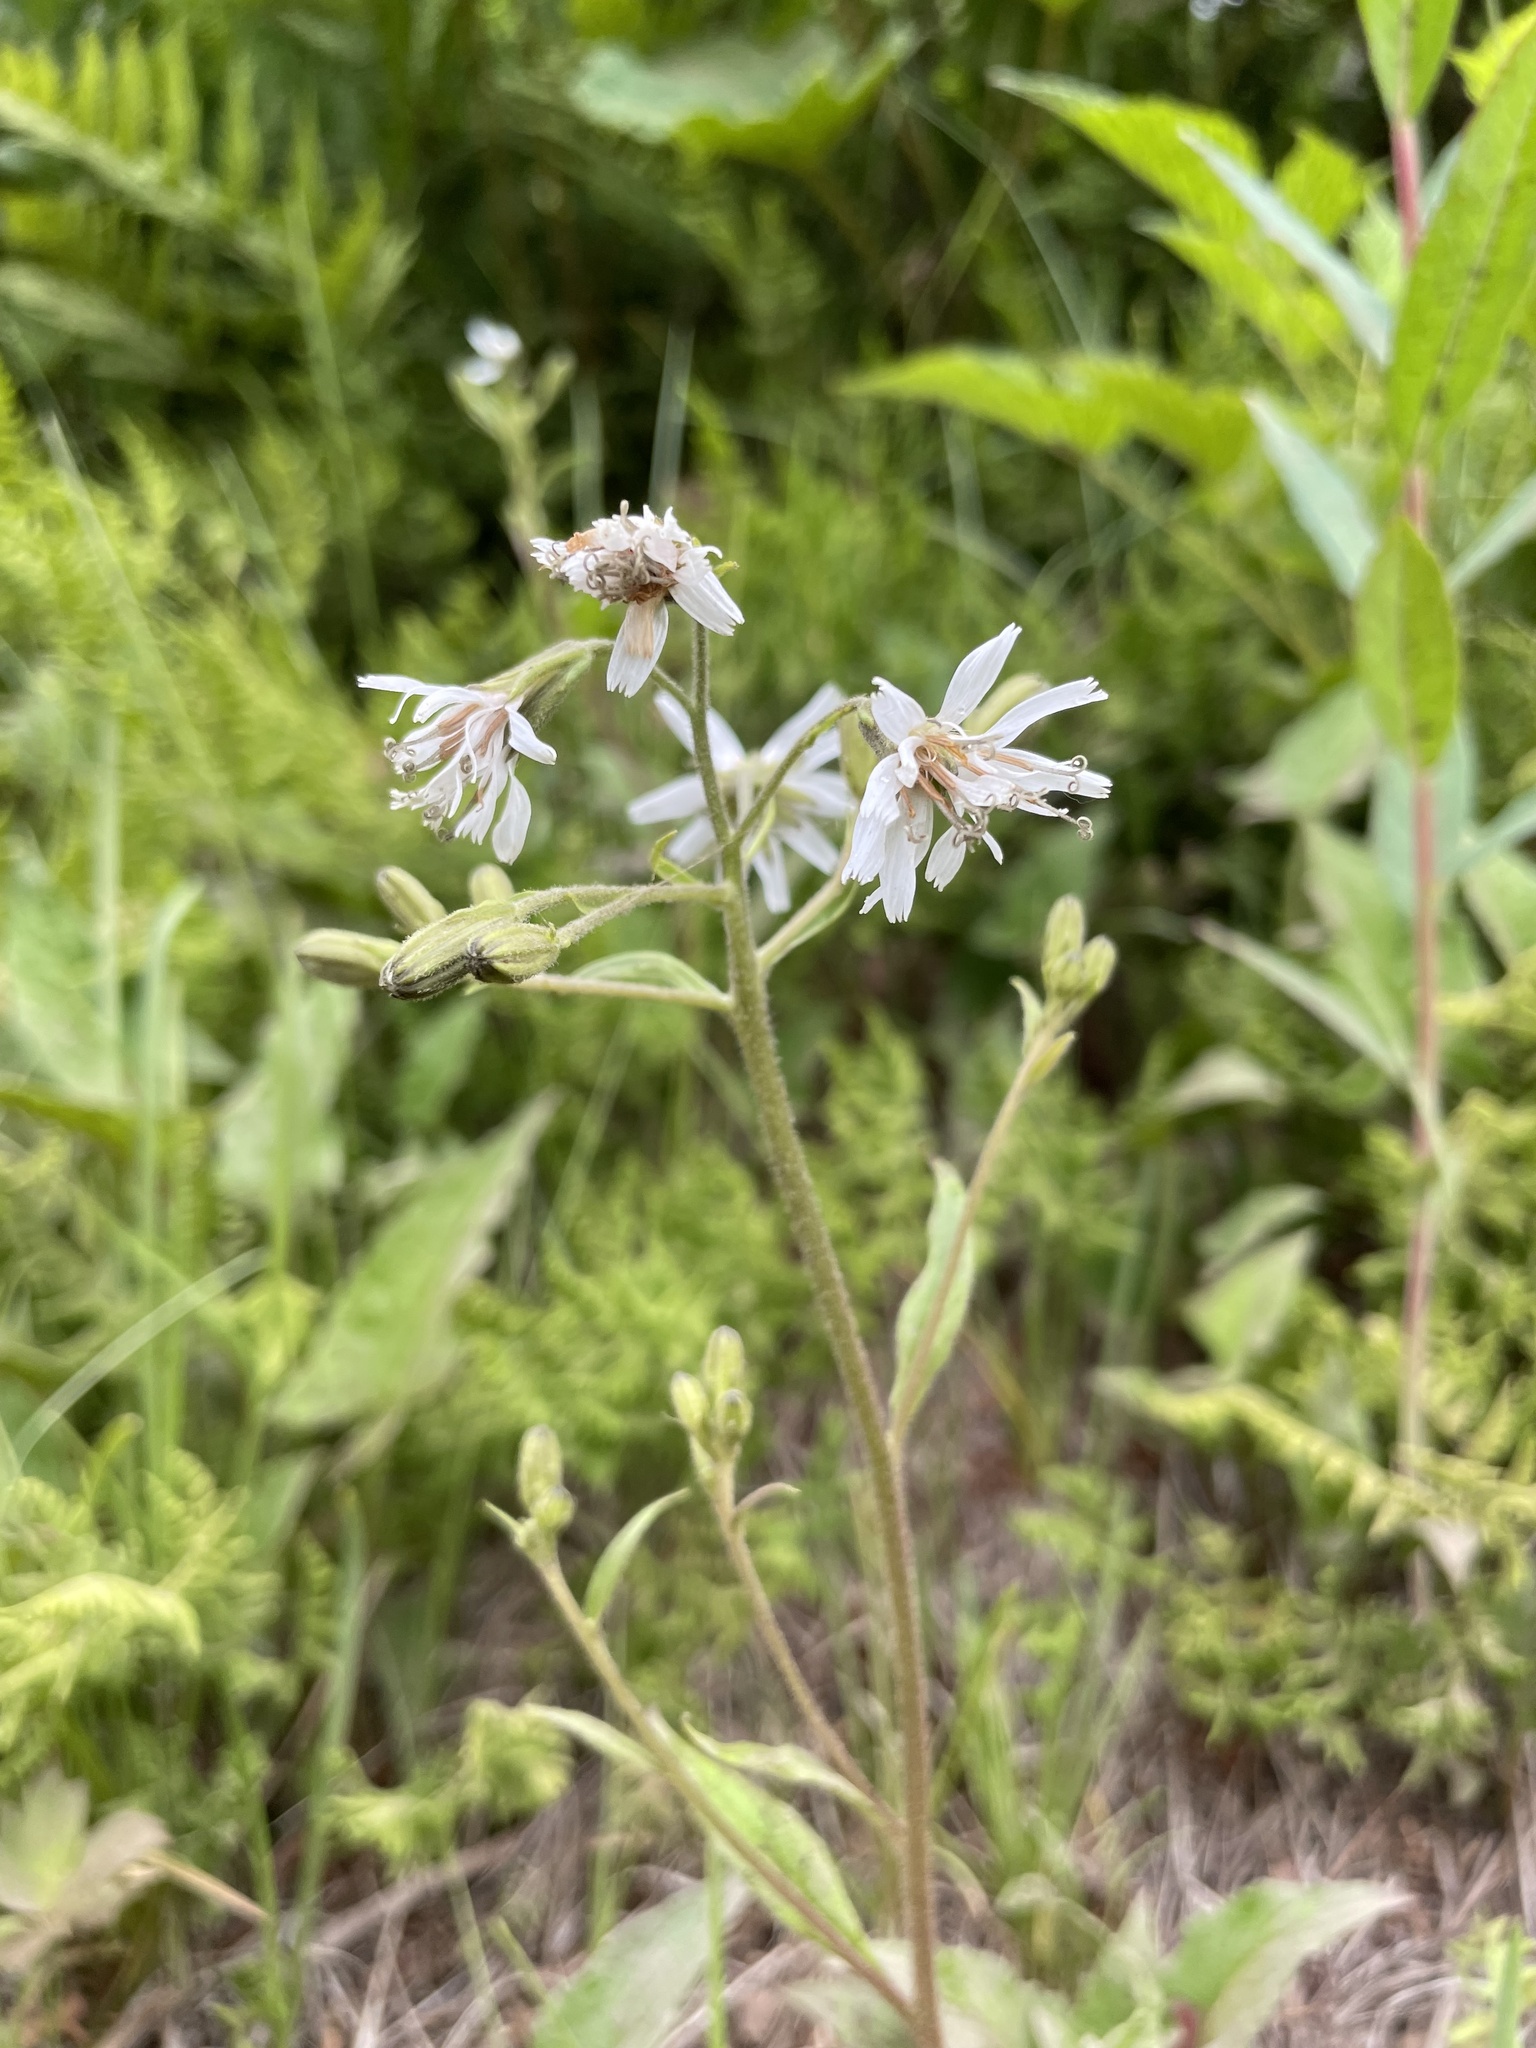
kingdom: Plantae
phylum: Tracheophyta
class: Magnoliopsida
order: Asterales
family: Asteraceae
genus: Nabalus
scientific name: Nabalus hastatus
